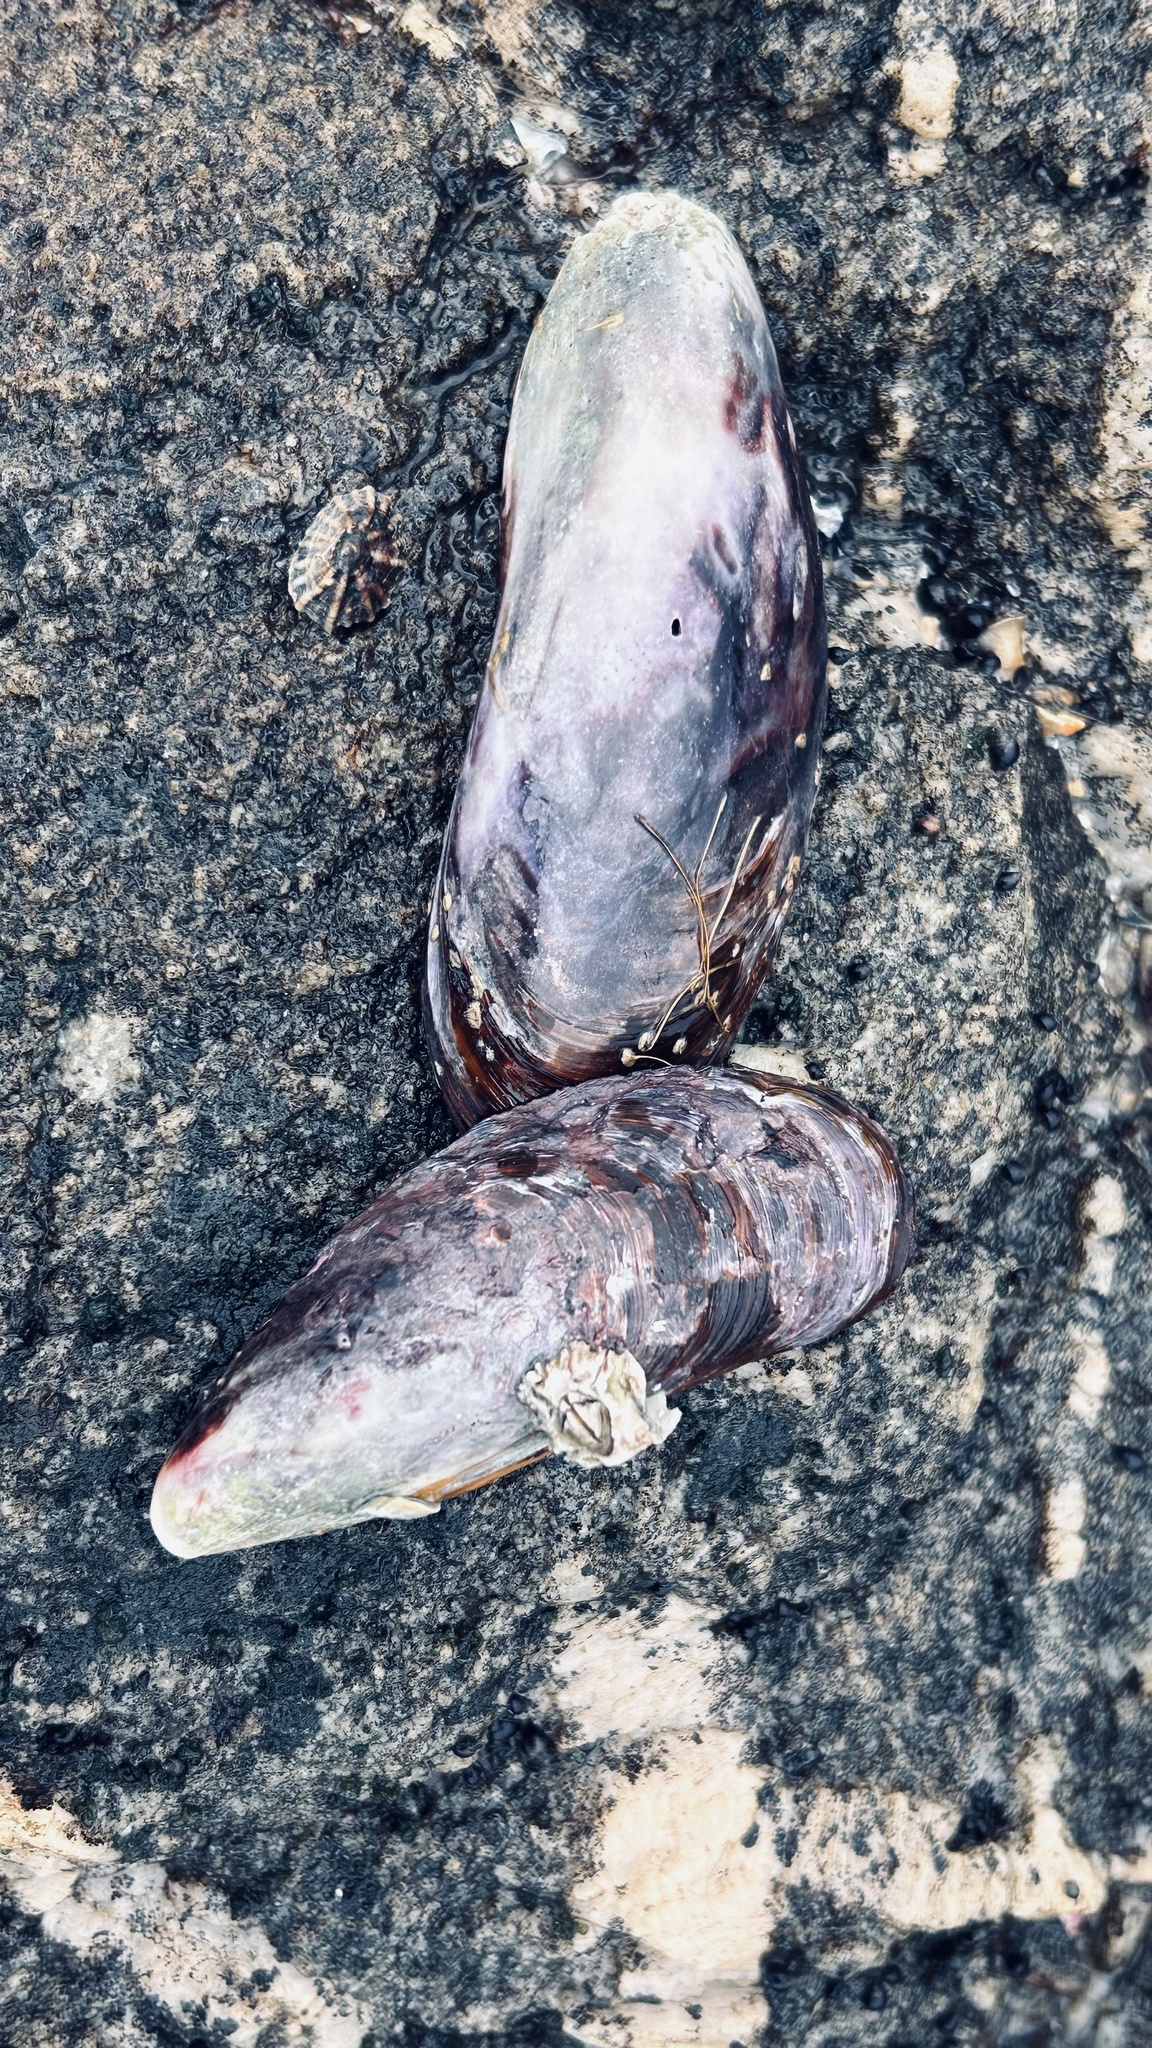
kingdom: Animalia
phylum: Mollusca
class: Bivalvia
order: Mytilida
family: Mytilidae
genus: Perna
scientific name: Perna perna
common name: Mexilhao mussel
